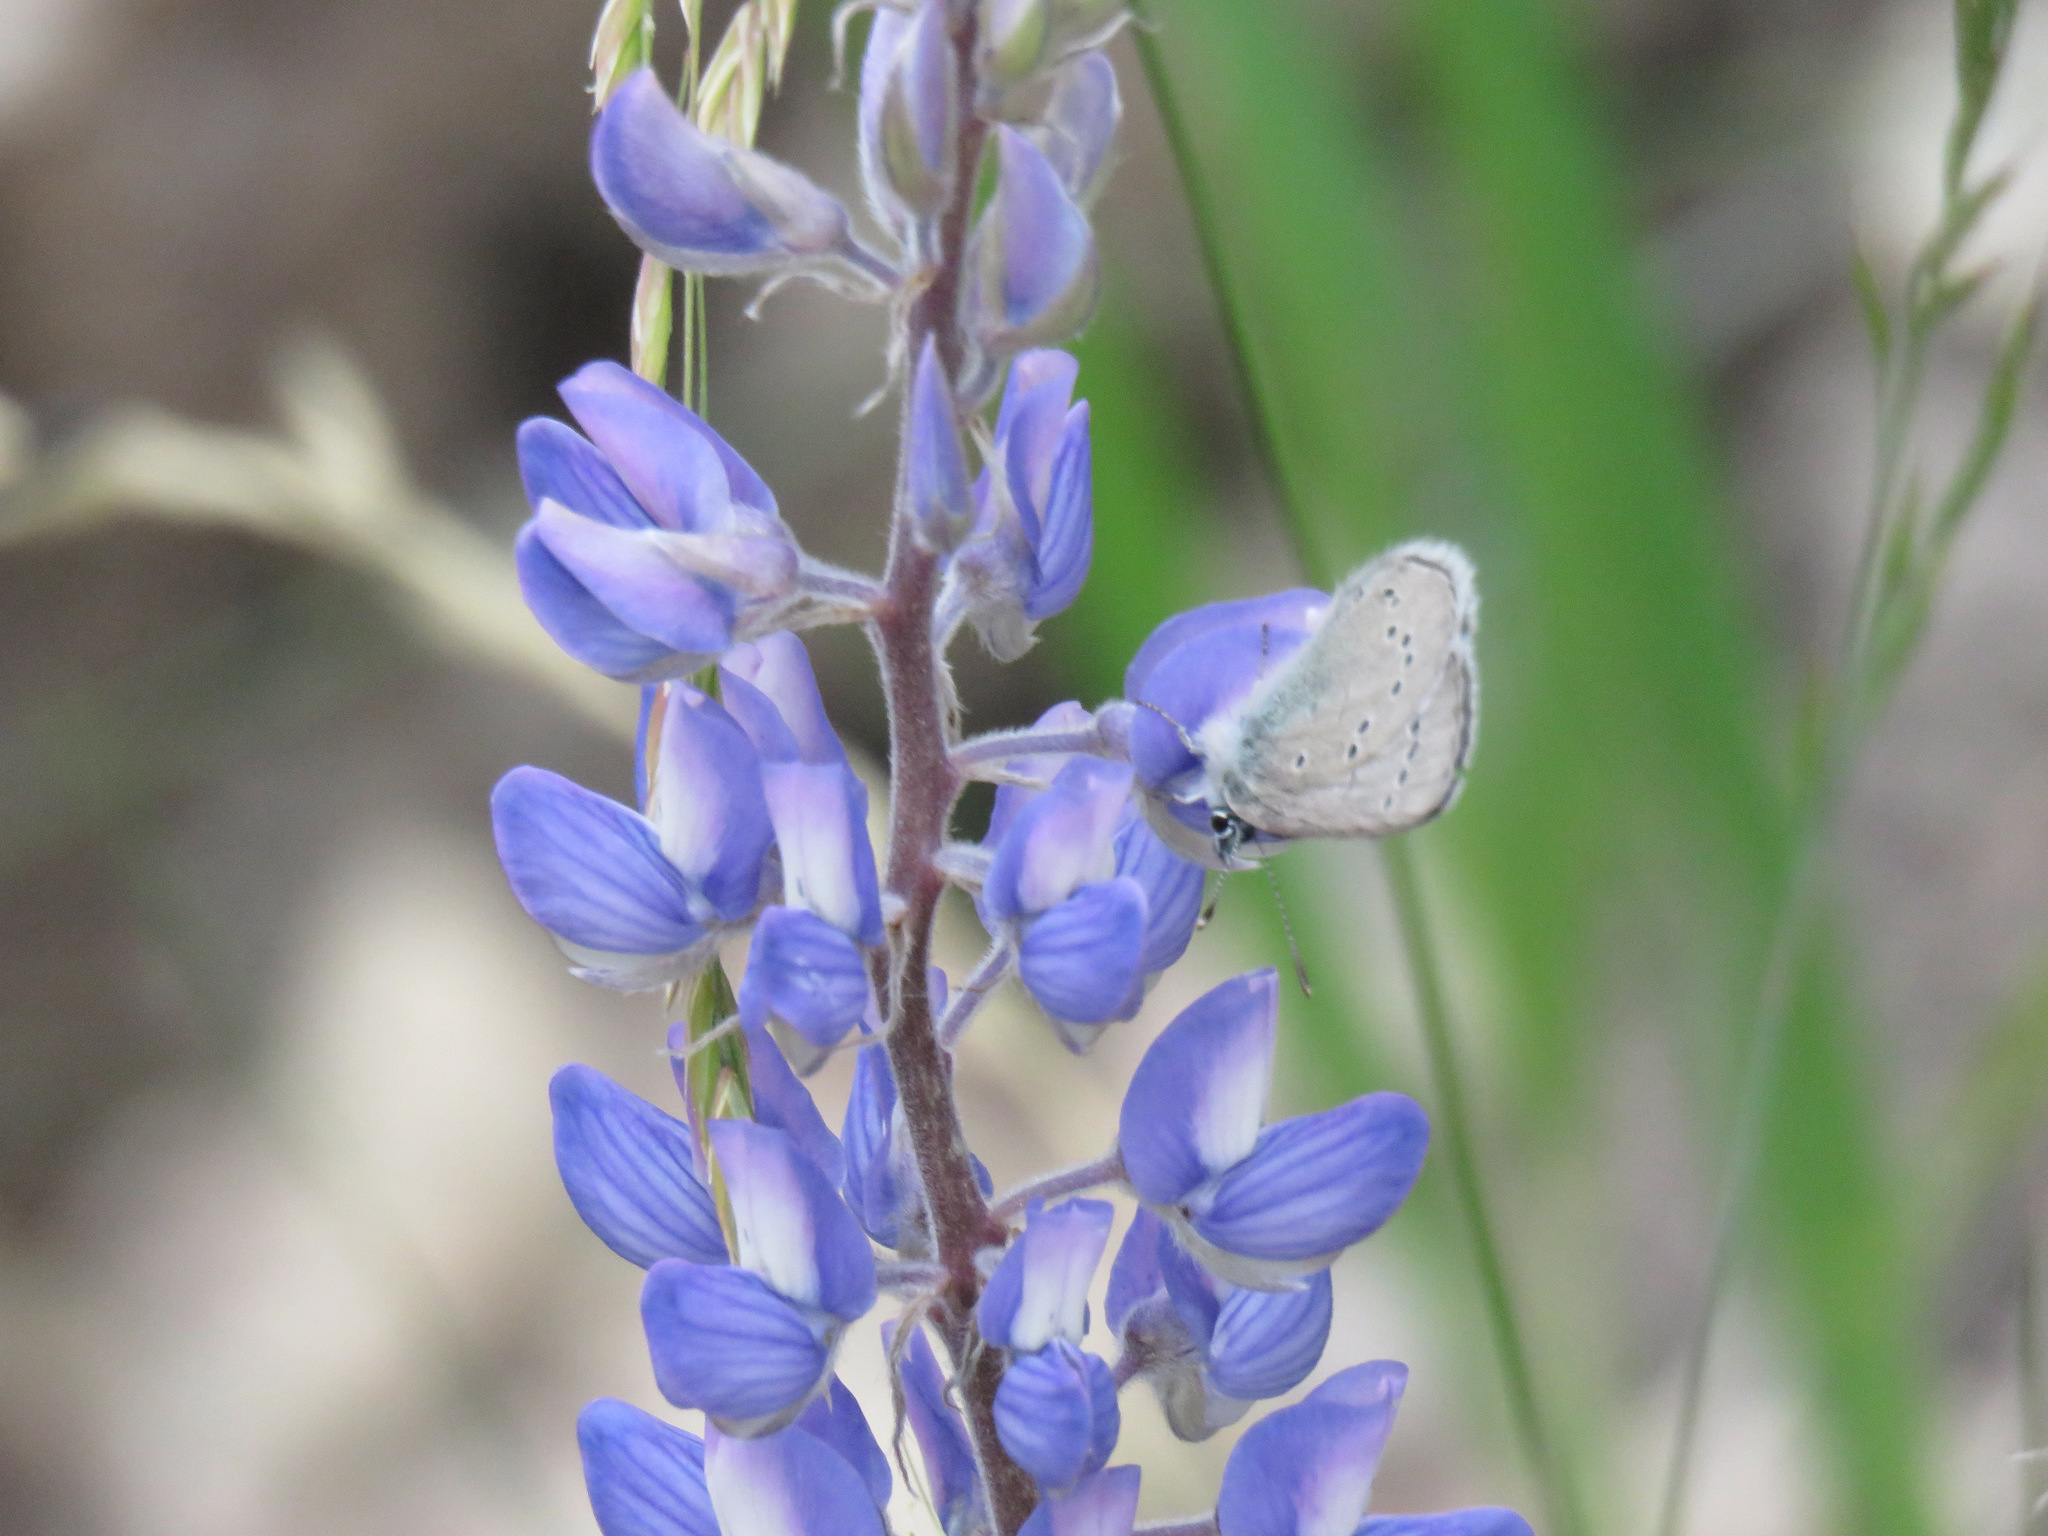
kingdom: Animalia
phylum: Arthropoda
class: Insecta
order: Lepidoptera
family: Lycaenidae
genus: Glaucopsyche
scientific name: Glaucopsyche lygdamus
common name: Silvery blue
